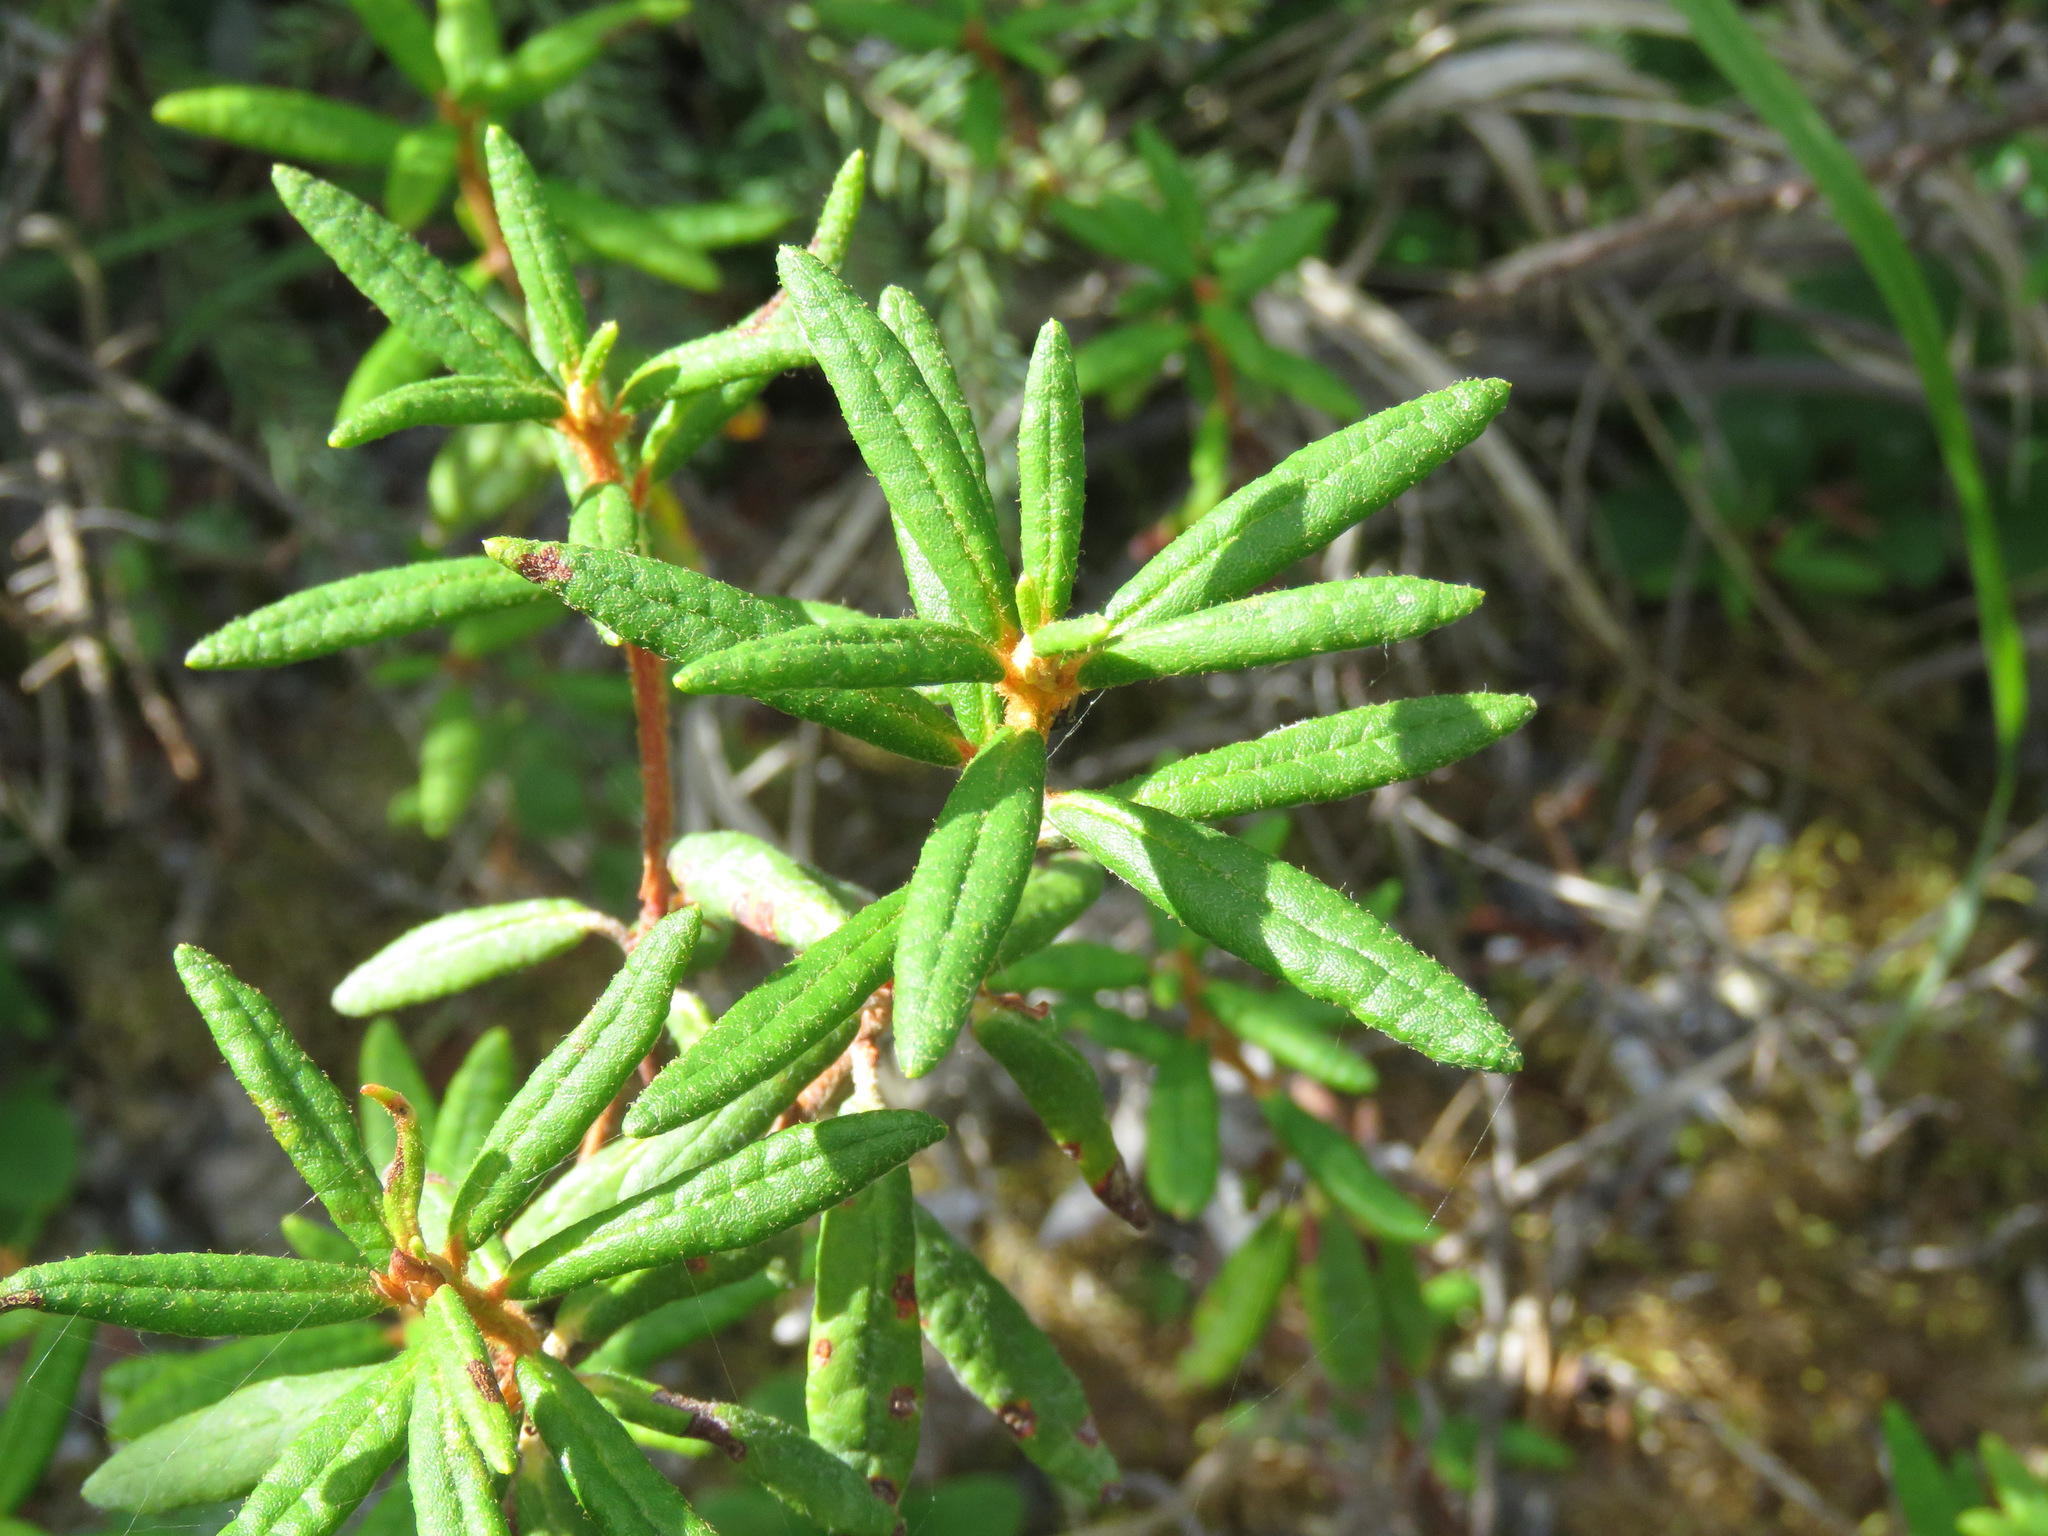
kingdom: Plantae
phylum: Tracheophyta
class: Magnoliopsida
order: Ericales
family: Ericaceae
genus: Rhododendron
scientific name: Rhododendron groenlandicum
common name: Bog labrador tea
